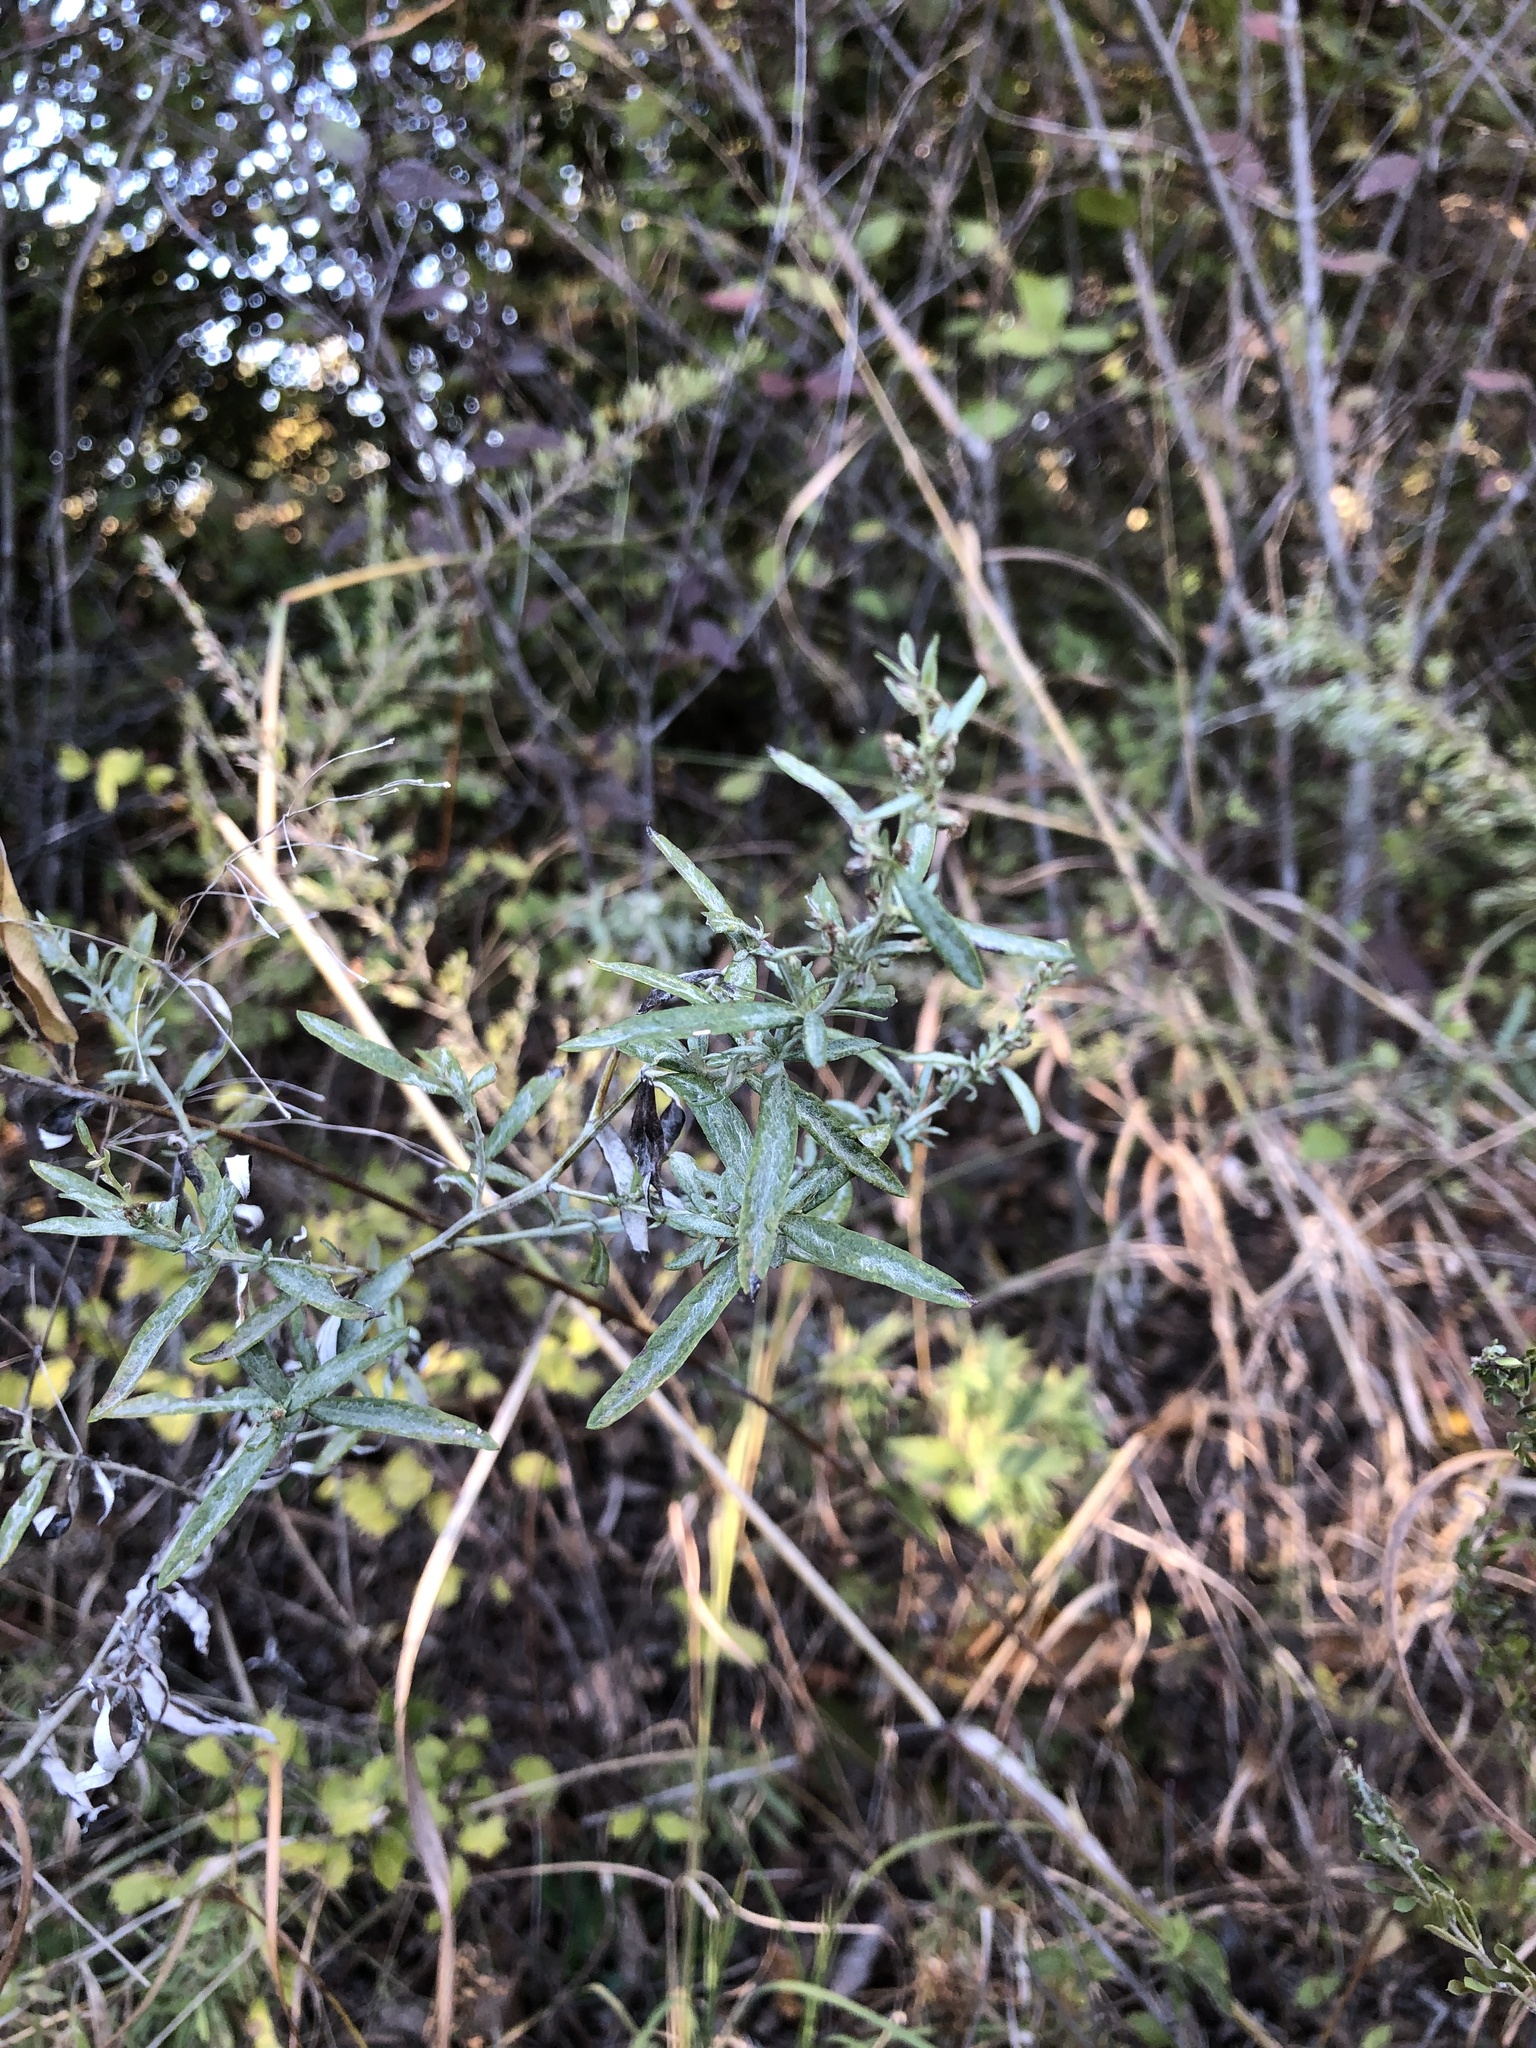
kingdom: Plantae
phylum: Tracheophyta
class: Magnoliopsida
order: Asterales
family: Asteraceae
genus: Artemisia
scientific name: Artemisia ludoviciana
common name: Western mugwort
